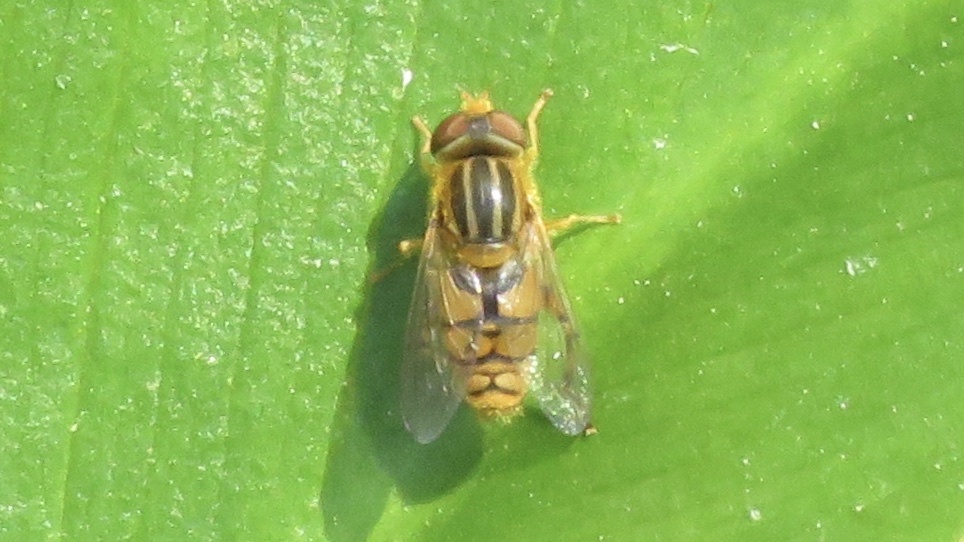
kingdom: Animalia
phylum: Arthropoda
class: Insecta
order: Diptera
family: Syrphidae
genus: Parhelophilus
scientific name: Parhelophilus laetus
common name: Common bog fly
